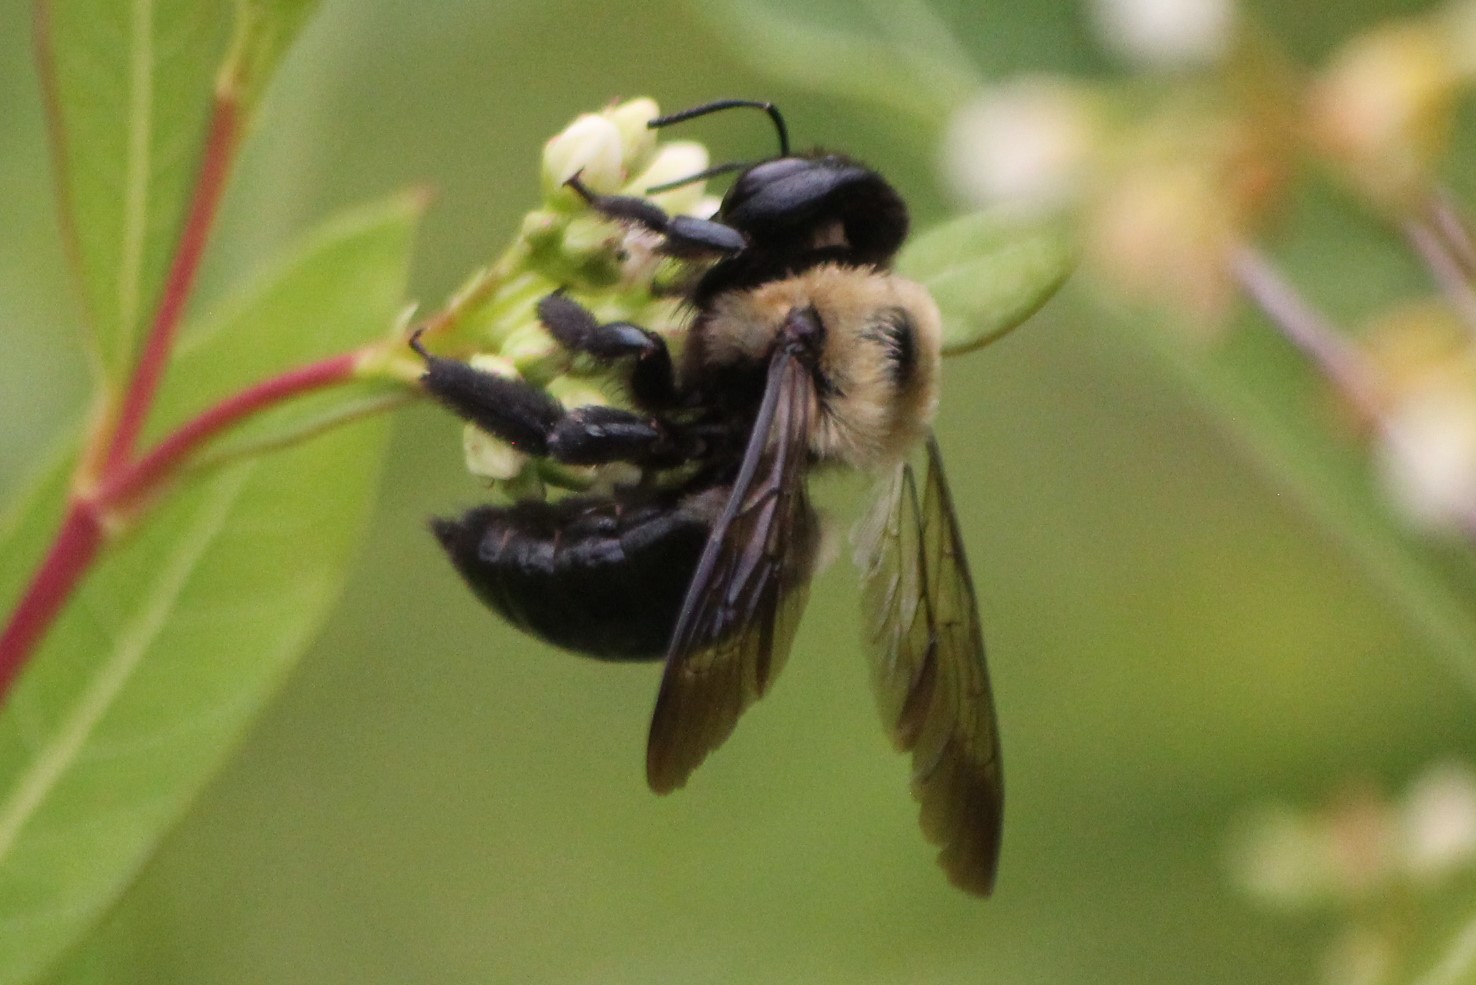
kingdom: Animalia
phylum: Arthropoda
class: Insecta
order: Hymenoptera
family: Apidae
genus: Xylocopa
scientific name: Xylocopa virginica
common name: Carpenter bee
